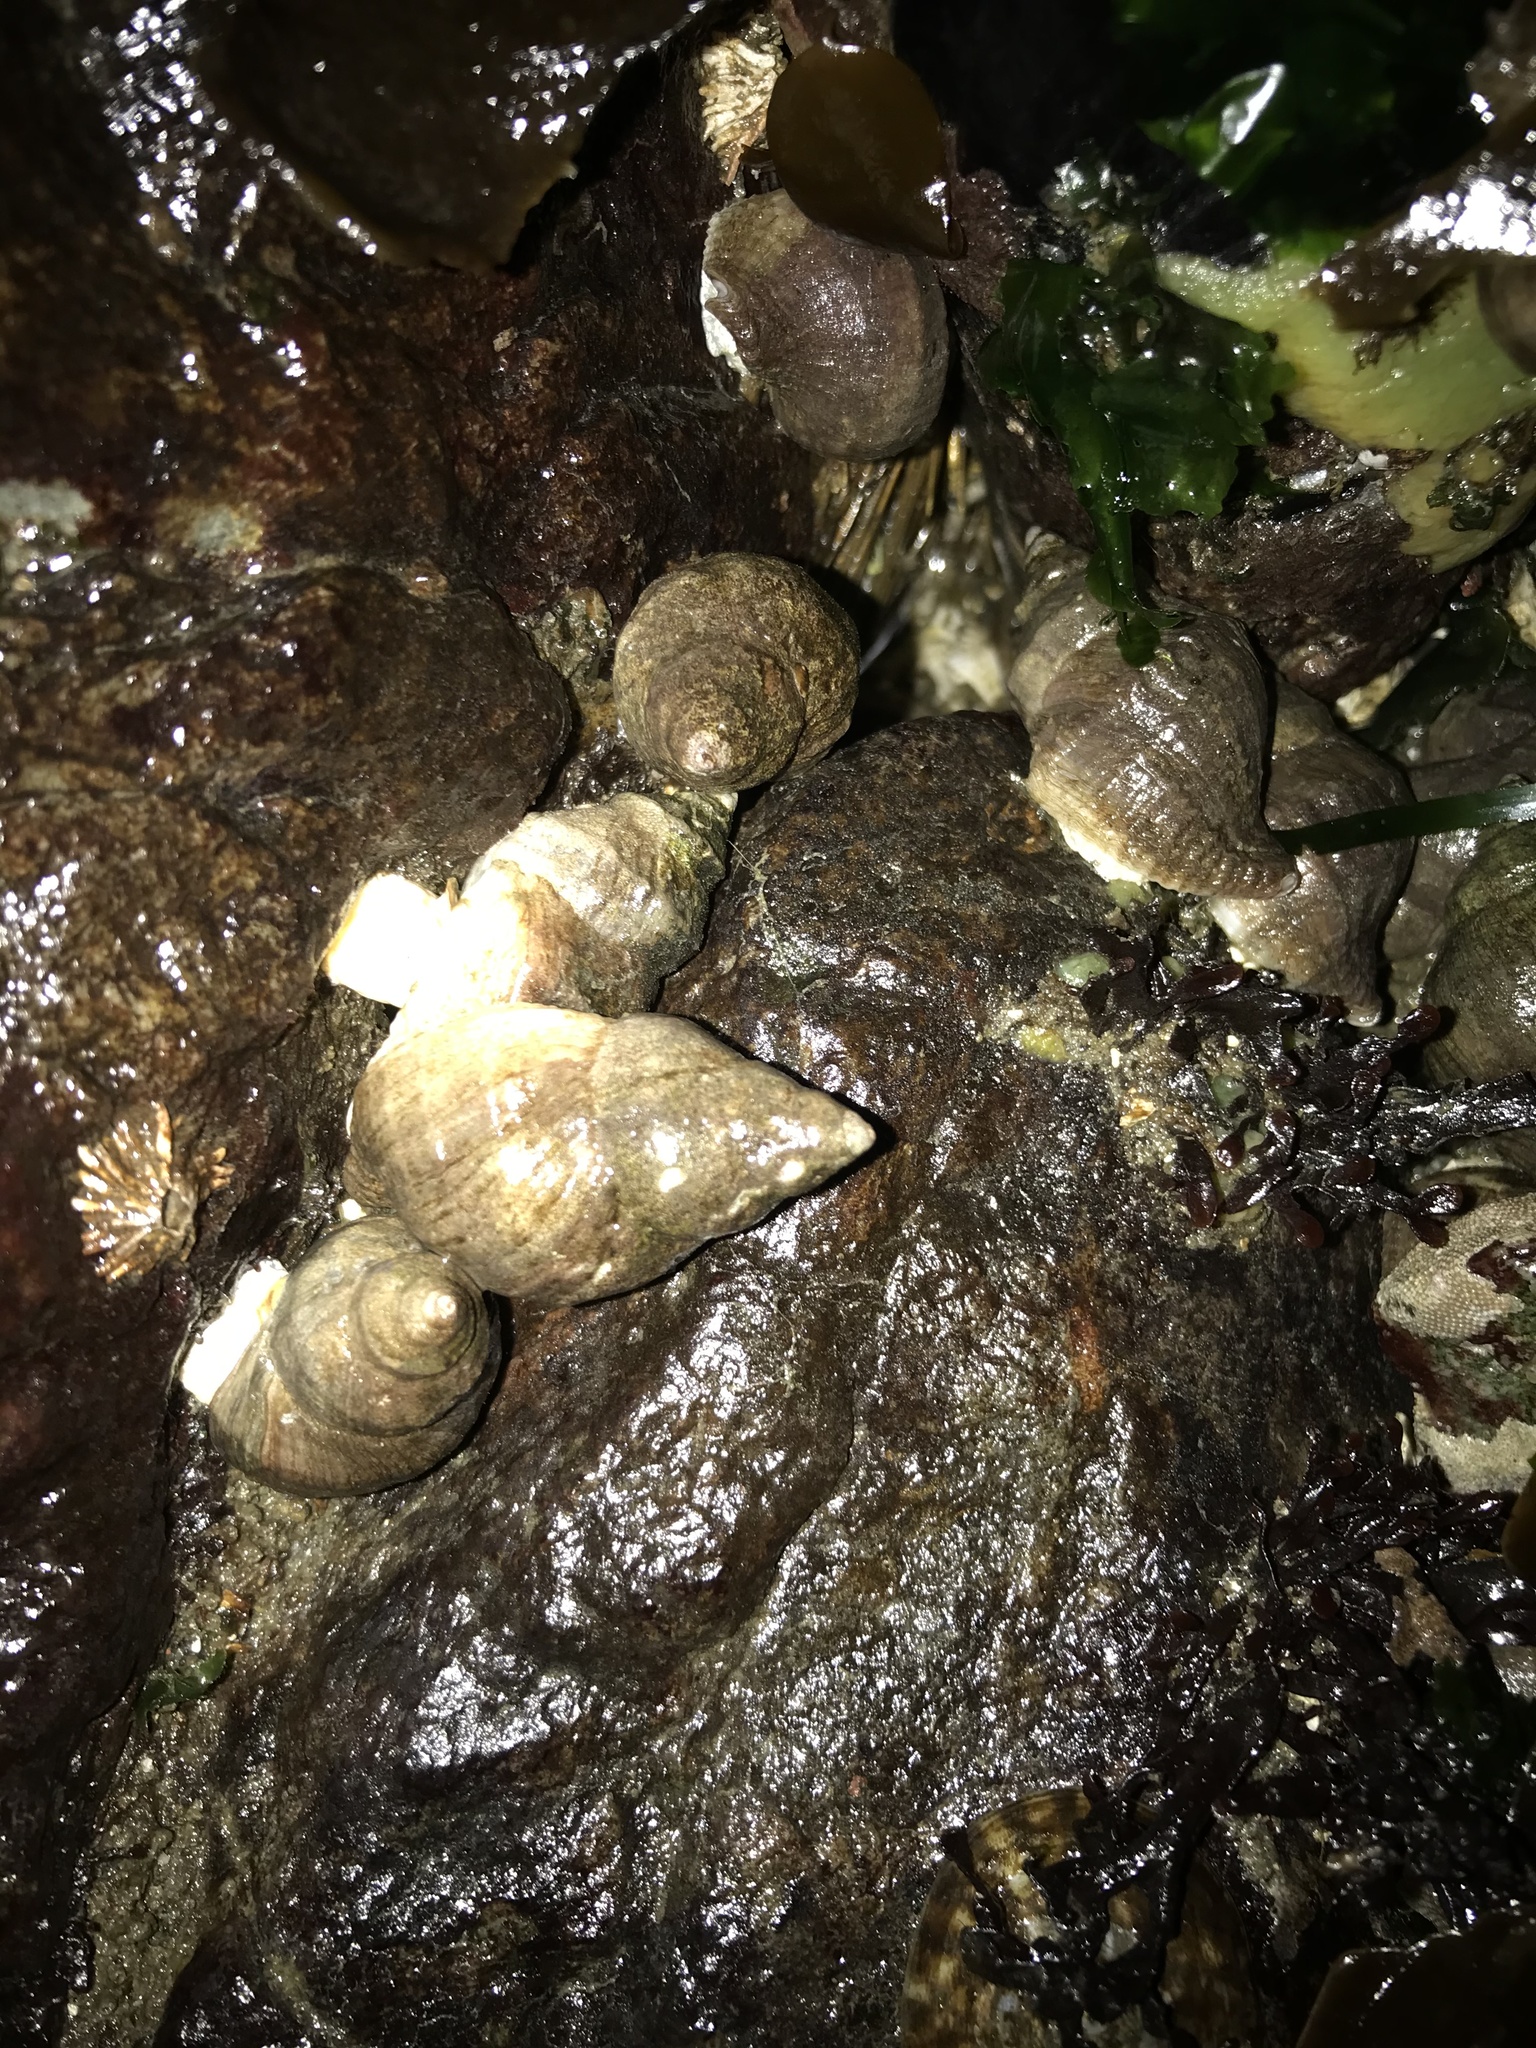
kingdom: Animalia
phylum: Mollusca
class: Gastropoda
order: Neogastropoda
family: Muricidae
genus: Nucella
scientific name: Nucella lamellosa
